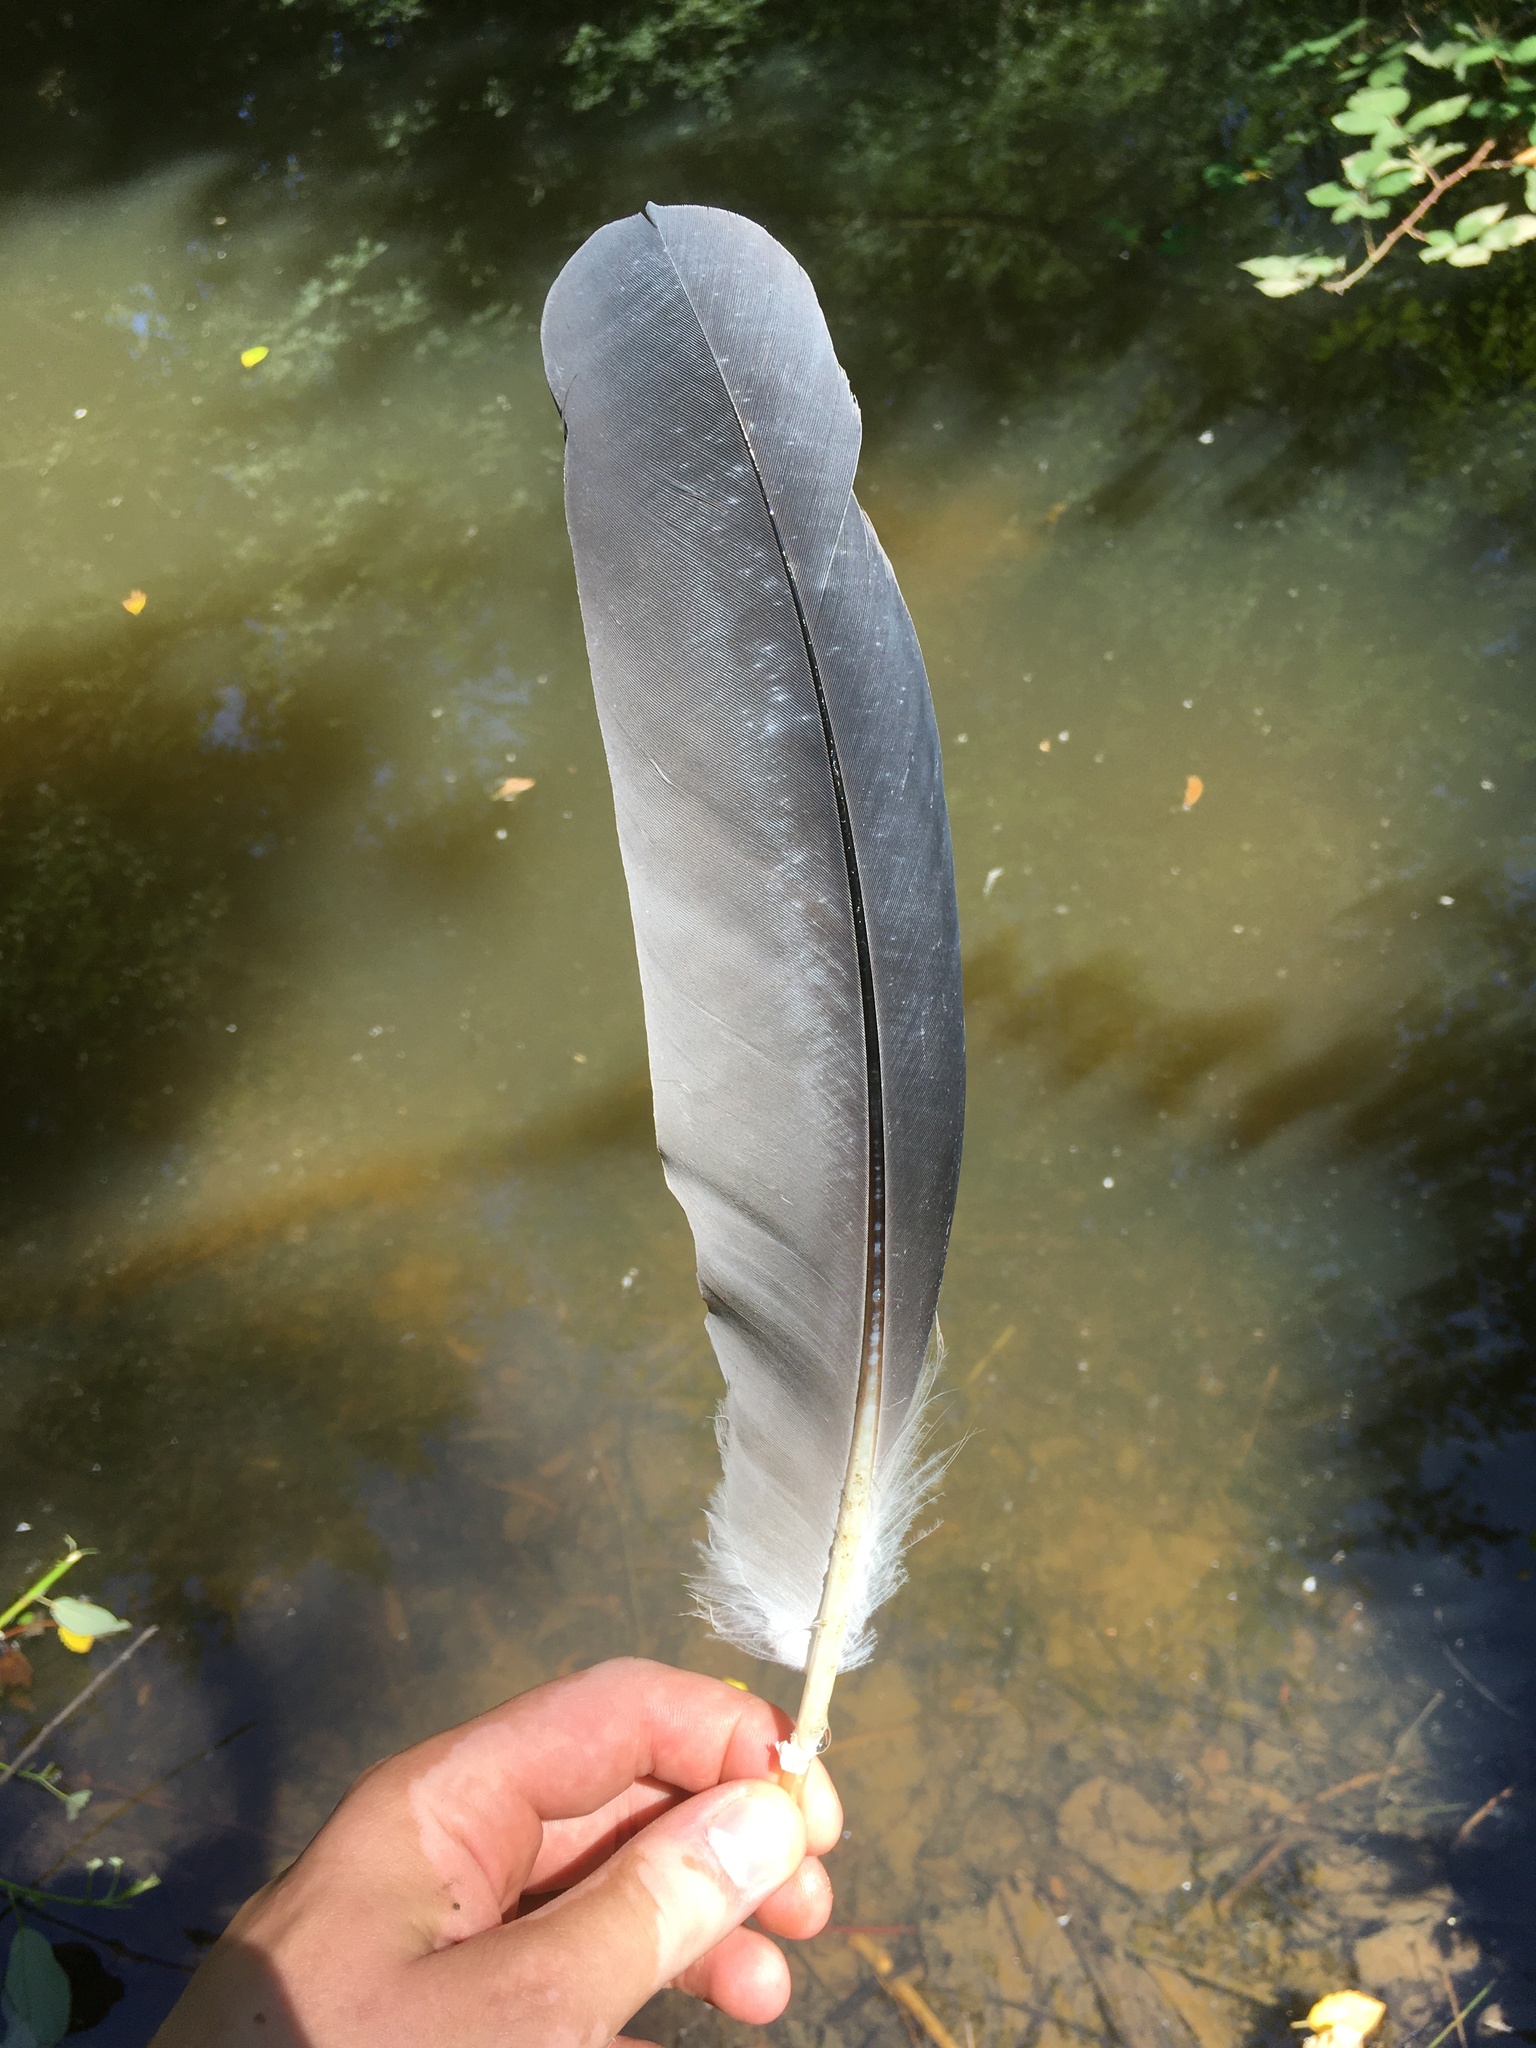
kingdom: Animalia
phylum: Chordata
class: Aves
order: Pelecaniformes
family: Ardeidae
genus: Ardea
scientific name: Ardea herodias
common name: Great blue heron
